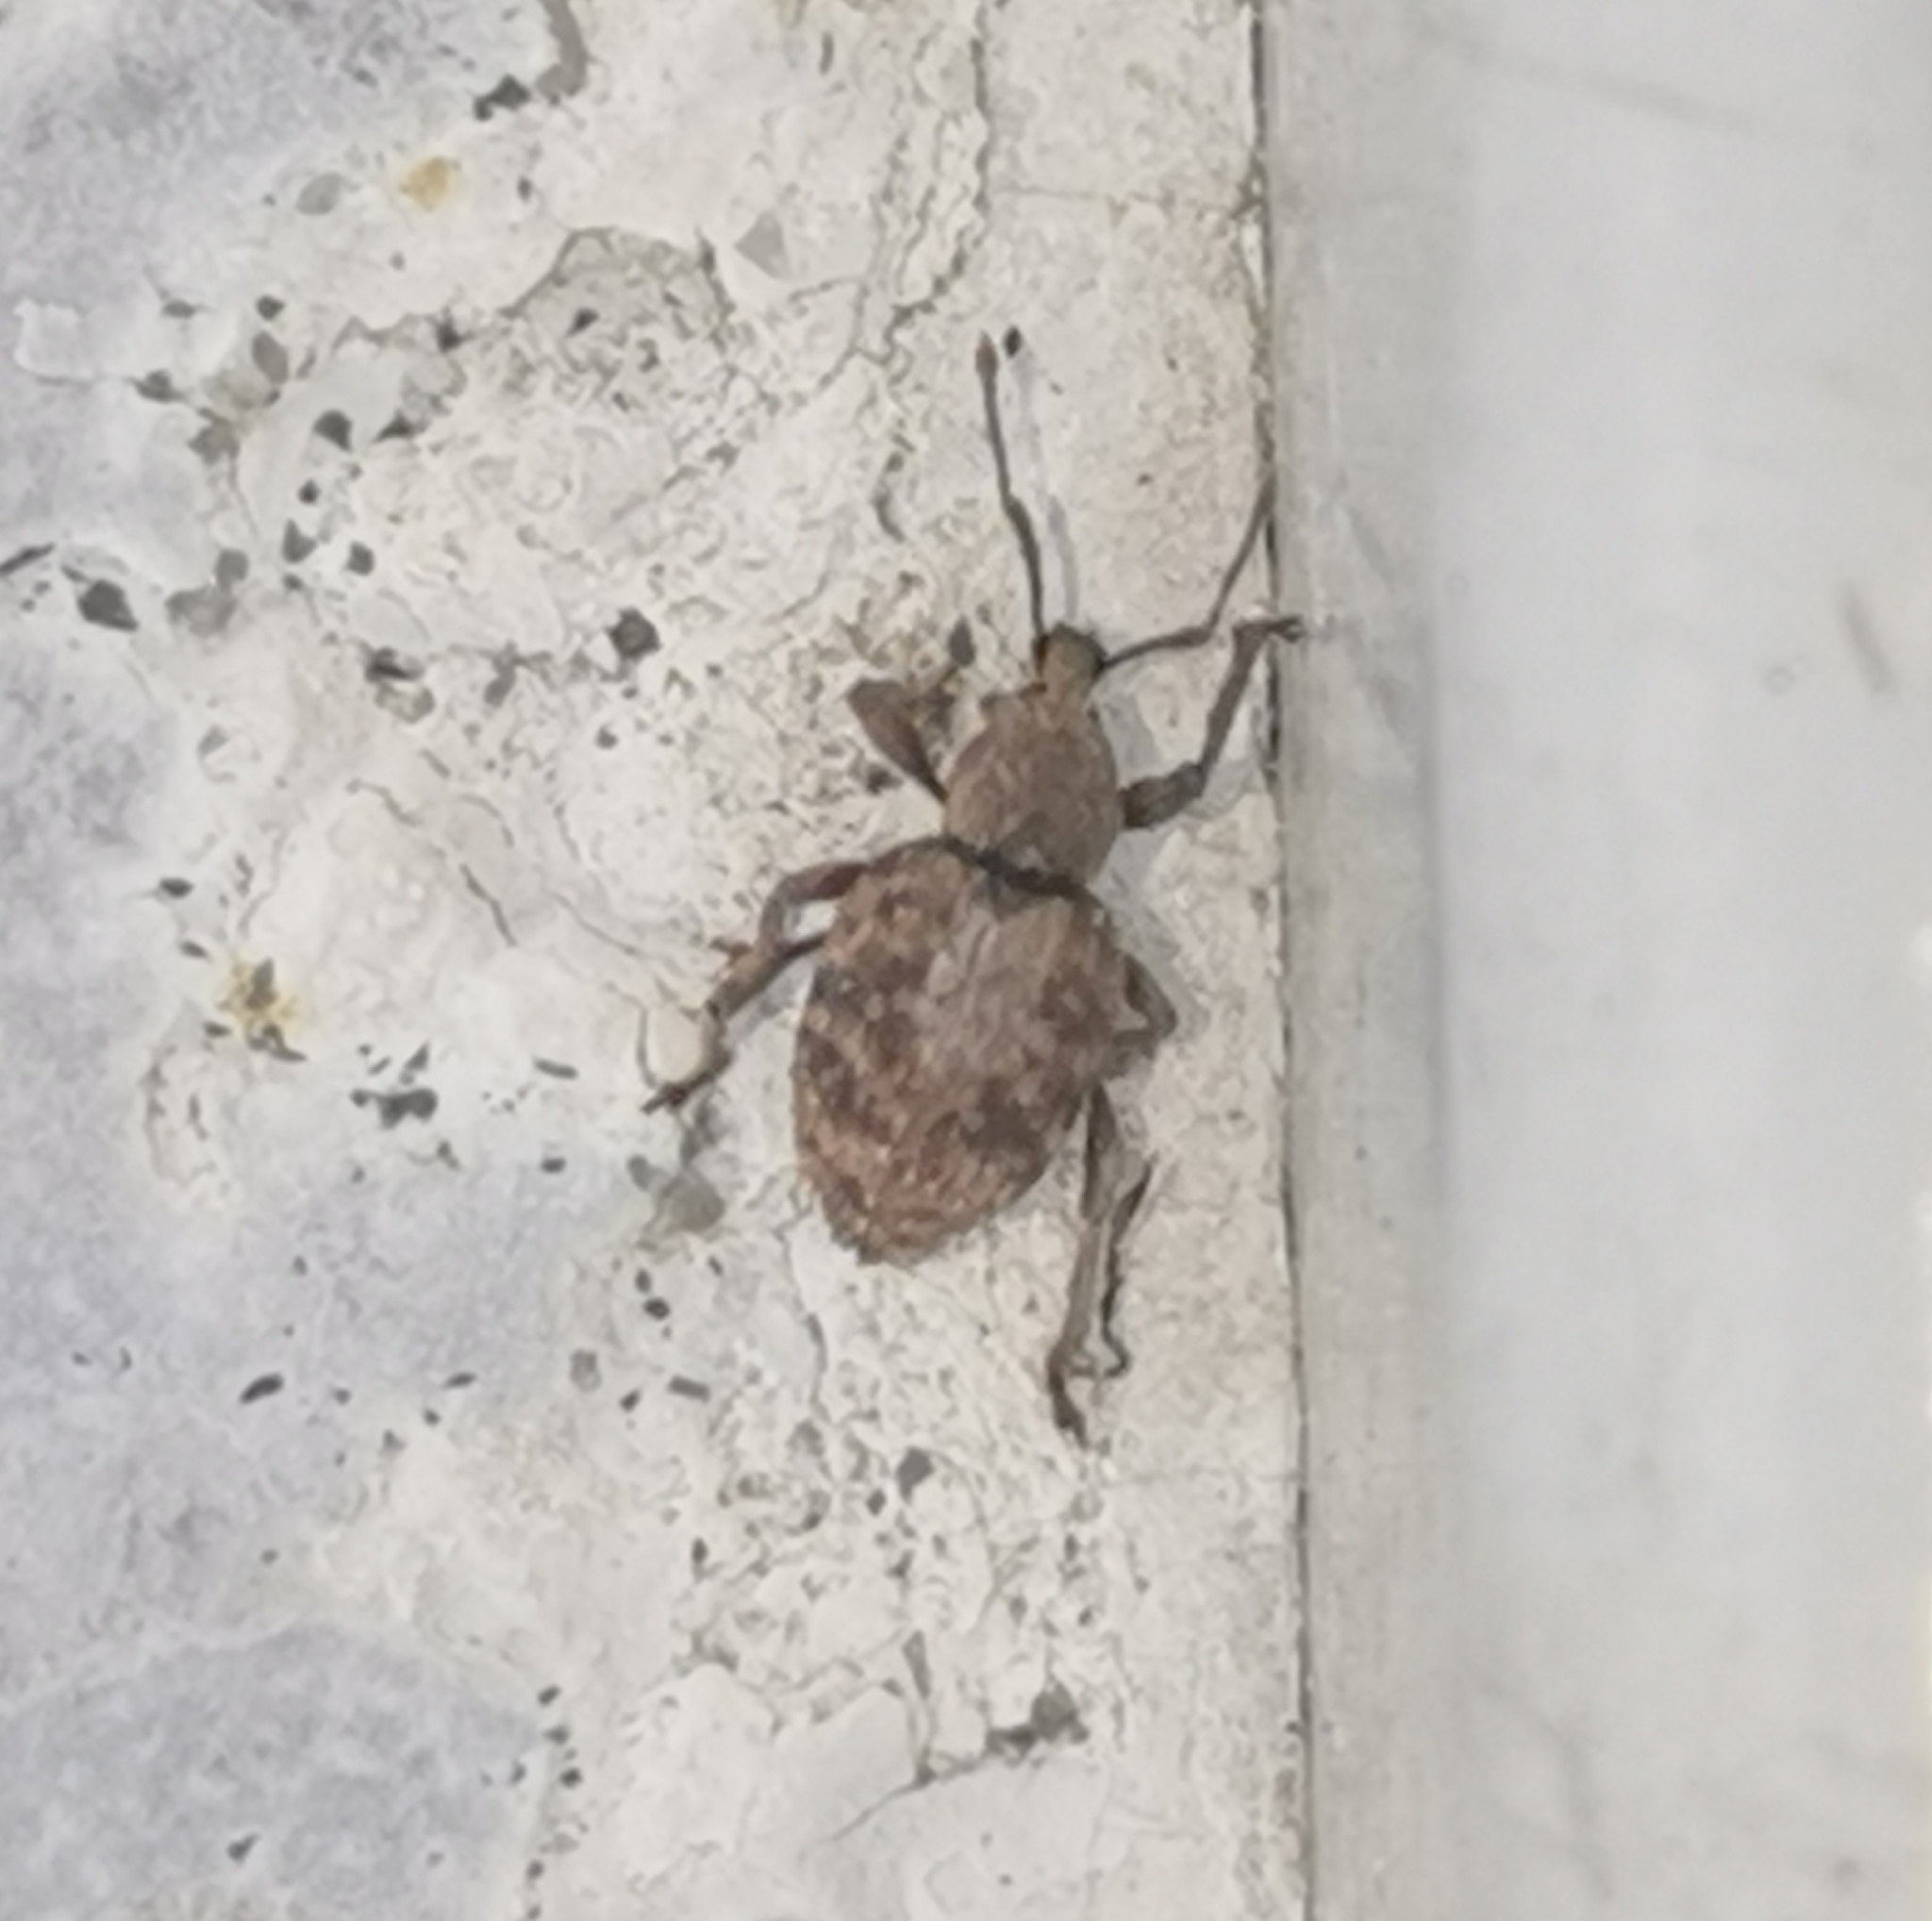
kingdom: Animalia
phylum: Arthropoda
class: Insecta
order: Coleoptera
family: Curculionidae
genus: Otiorhynchus
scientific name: Otiorhynchus carinatopunctatus
